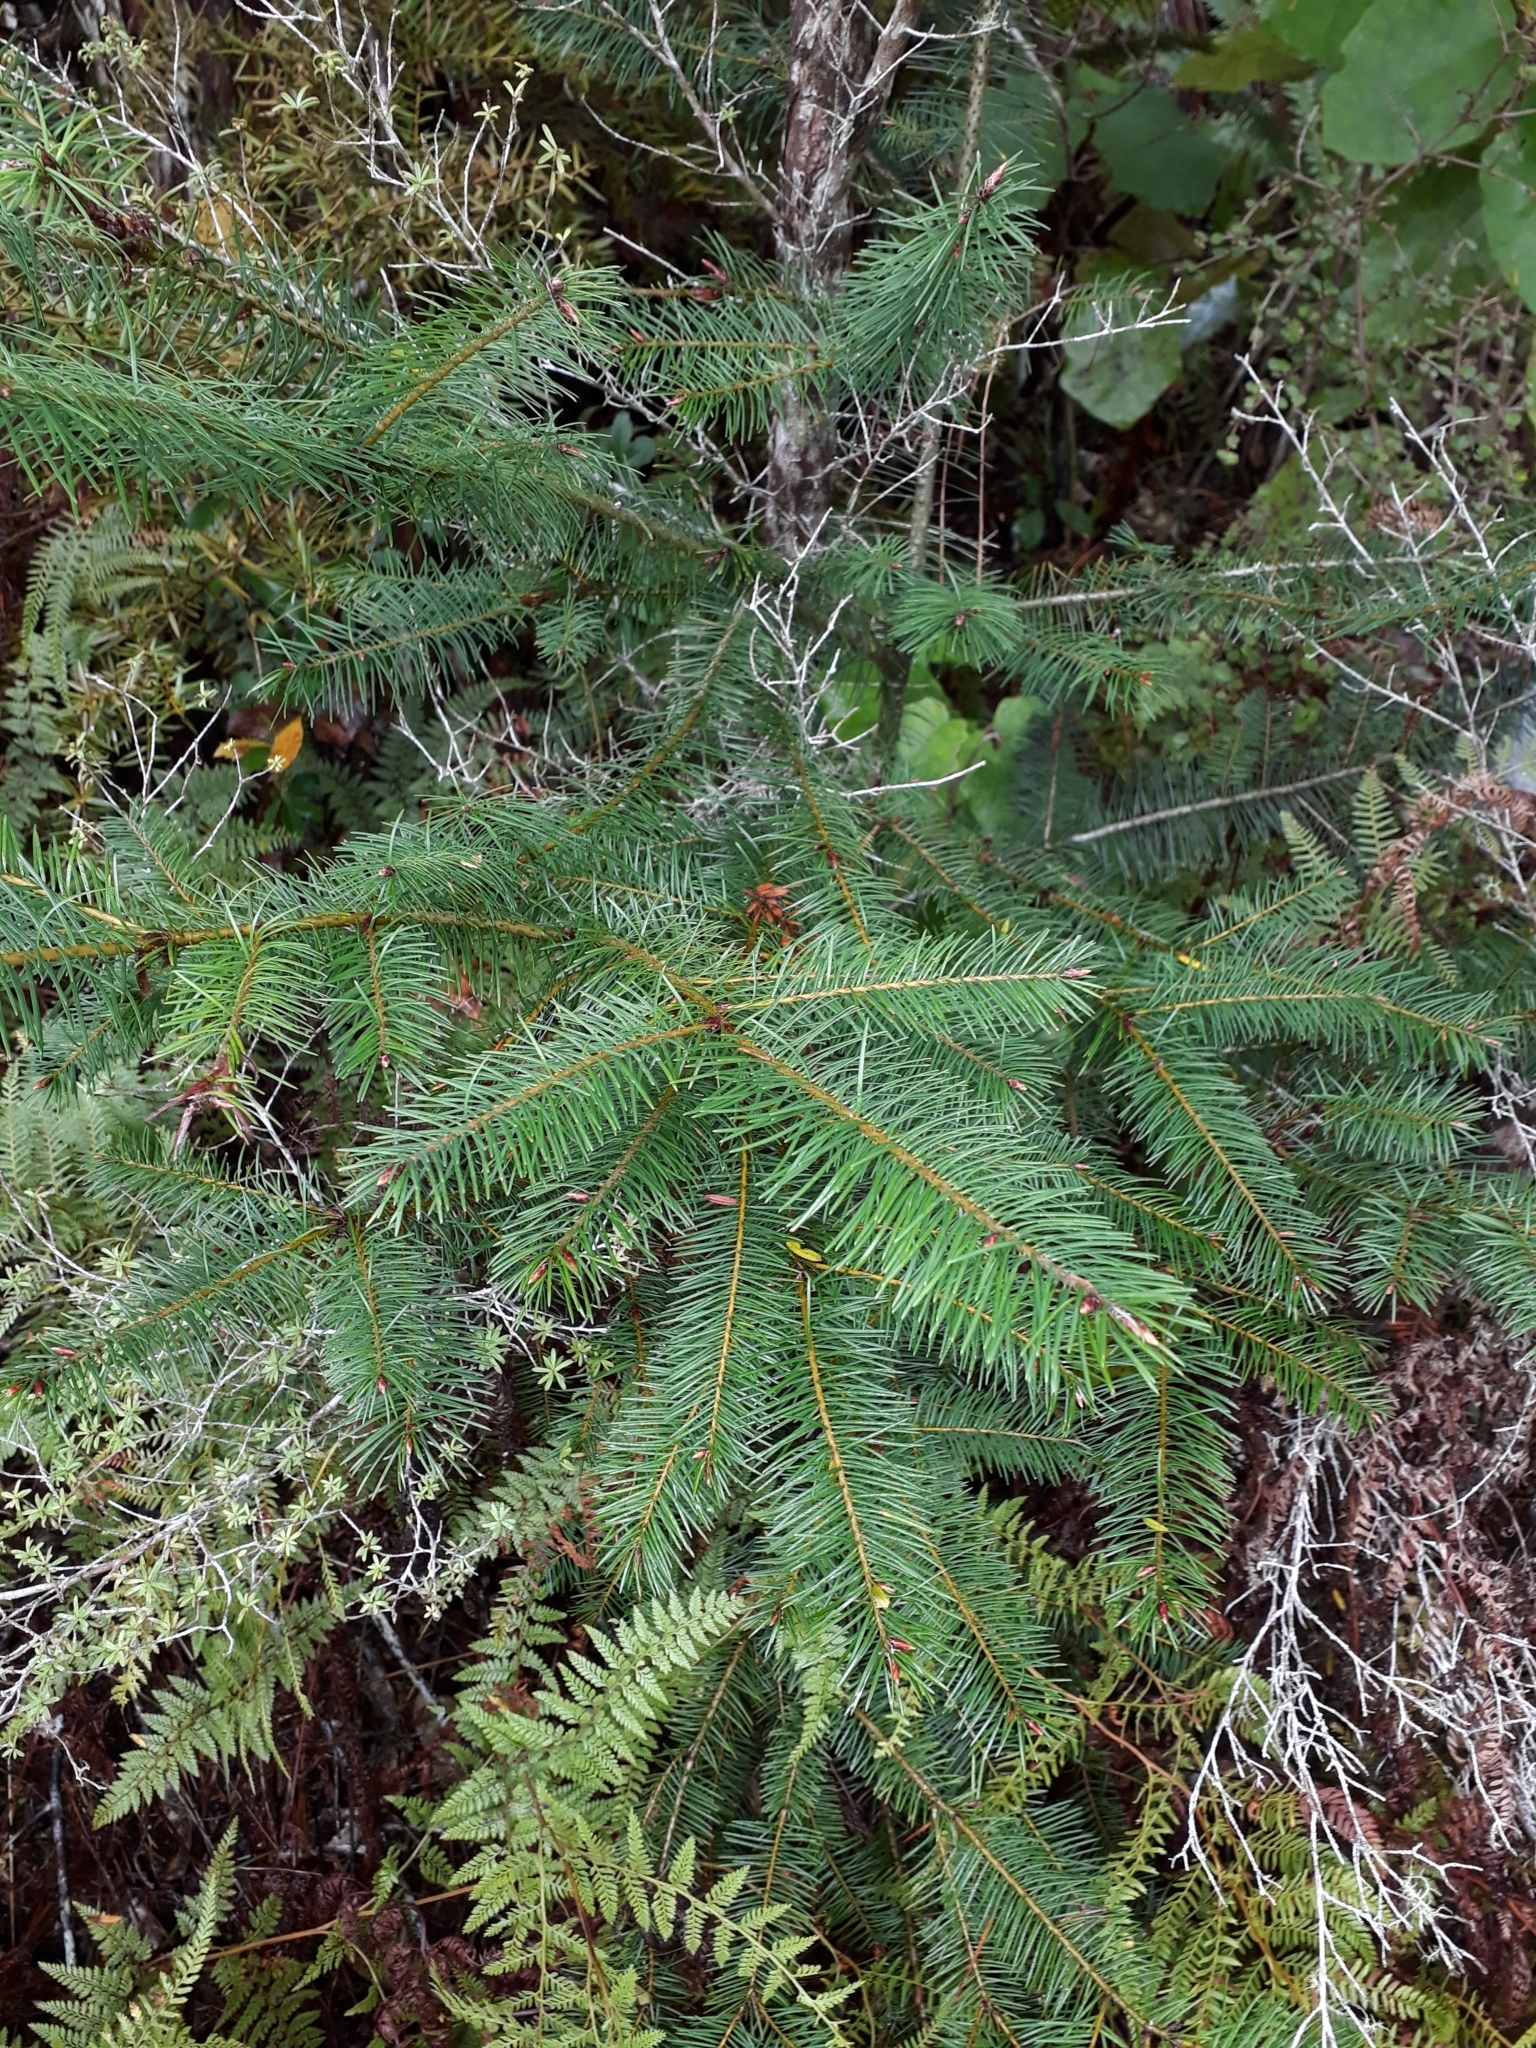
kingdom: Plantae
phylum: Tracheophyta
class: Pinopsida
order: Pinales
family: Pinaceae
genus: Pseudotsuga
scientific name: Pseudotsuga menziesii
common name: Douglas fir
